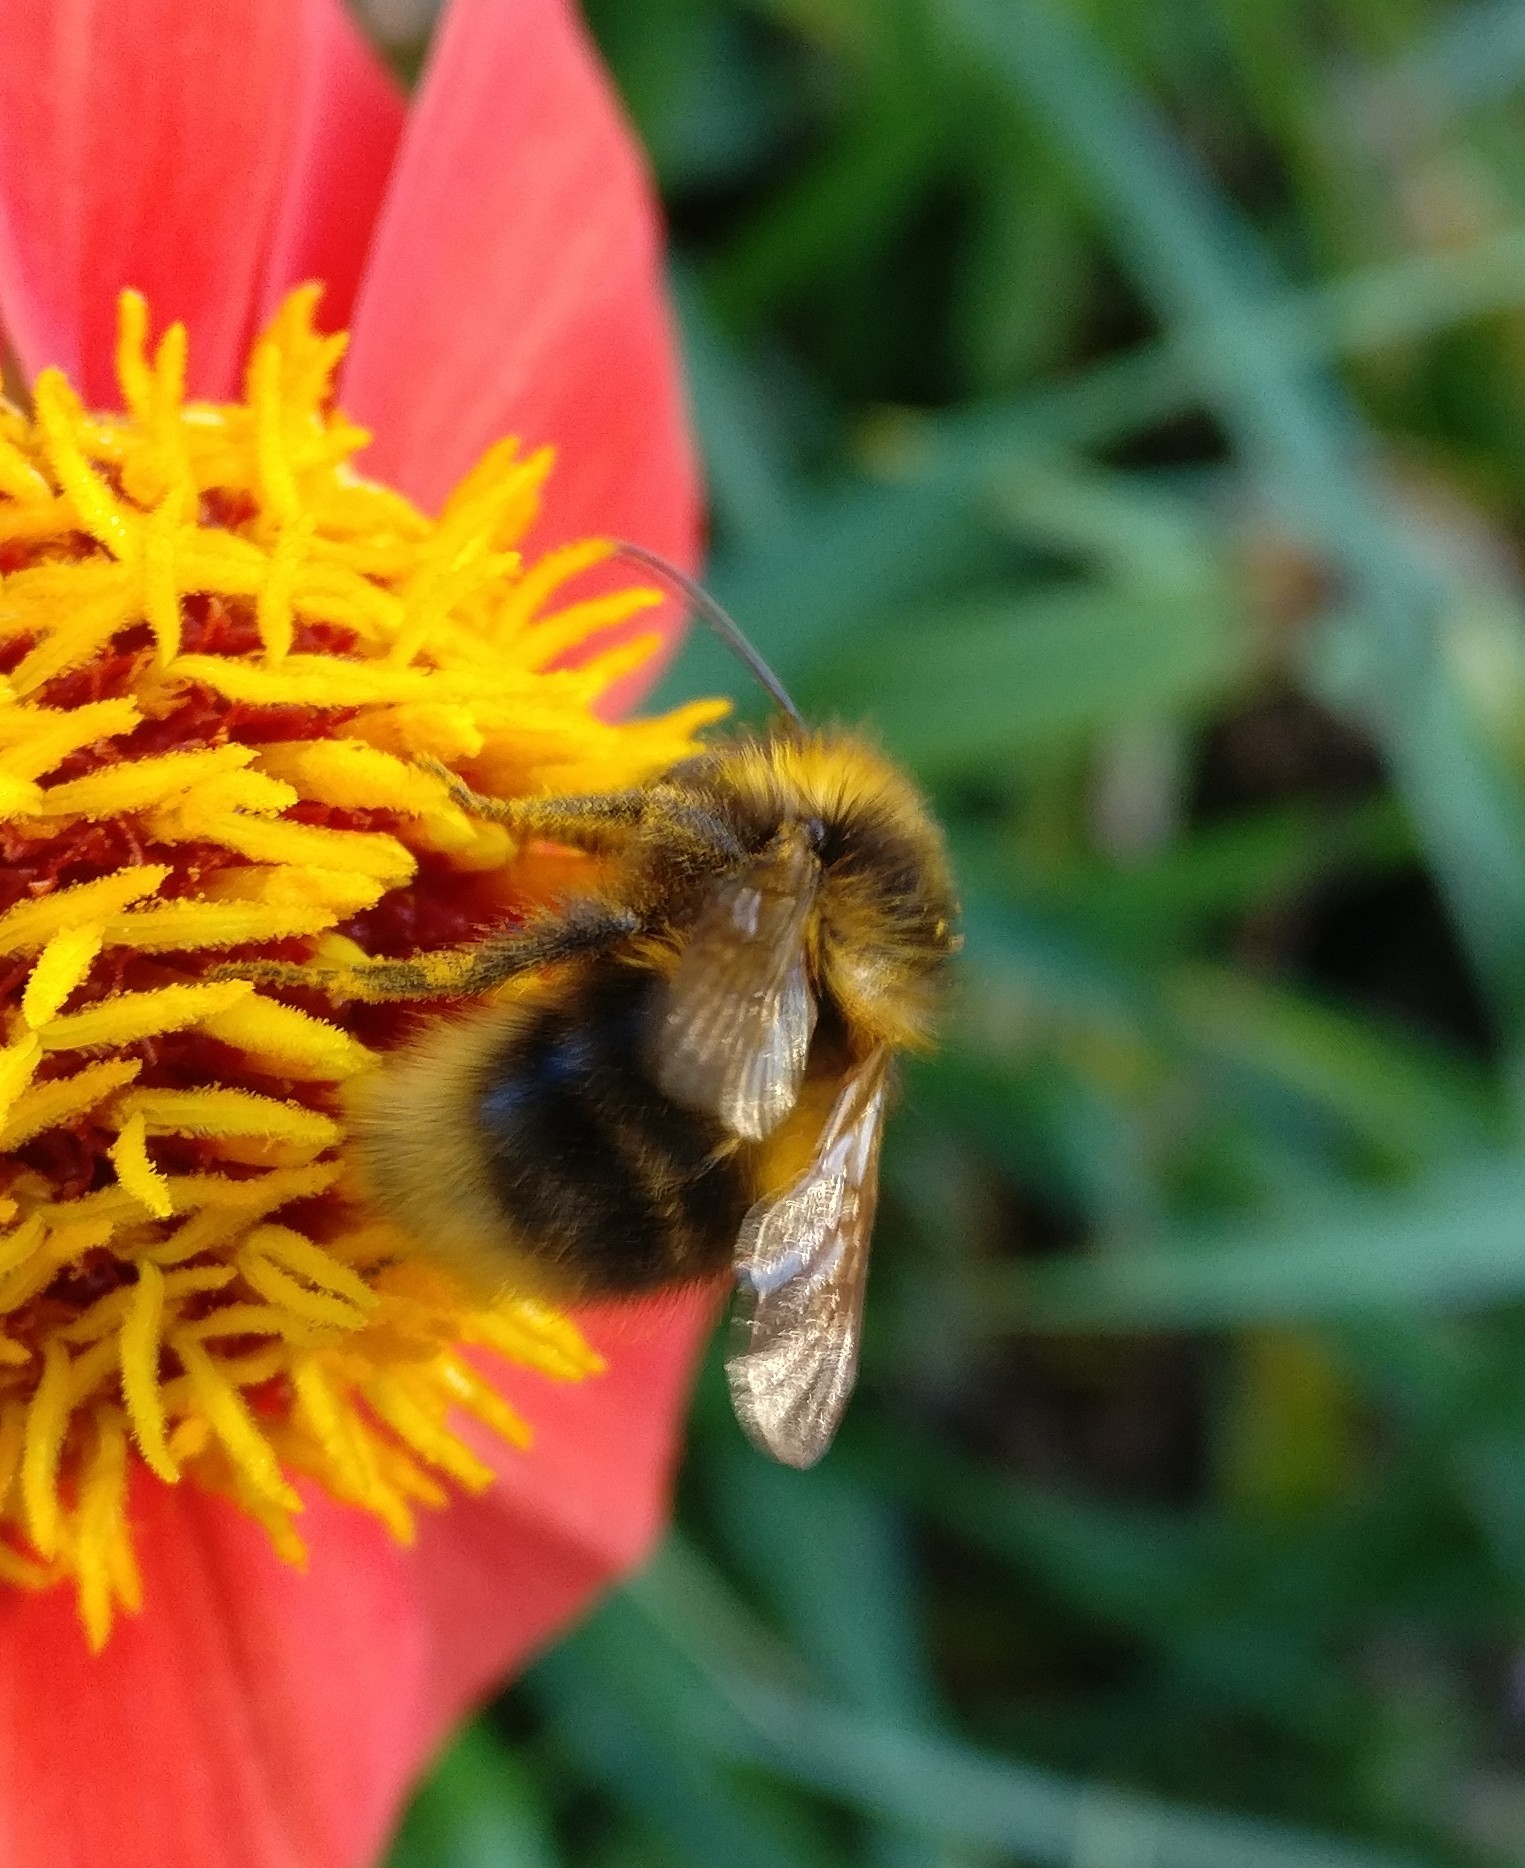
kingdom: Animalia
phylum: Arthropoda
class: Insecta
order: Hymenoptera
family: Apidae
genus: Megabombus
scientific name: Megabombus
